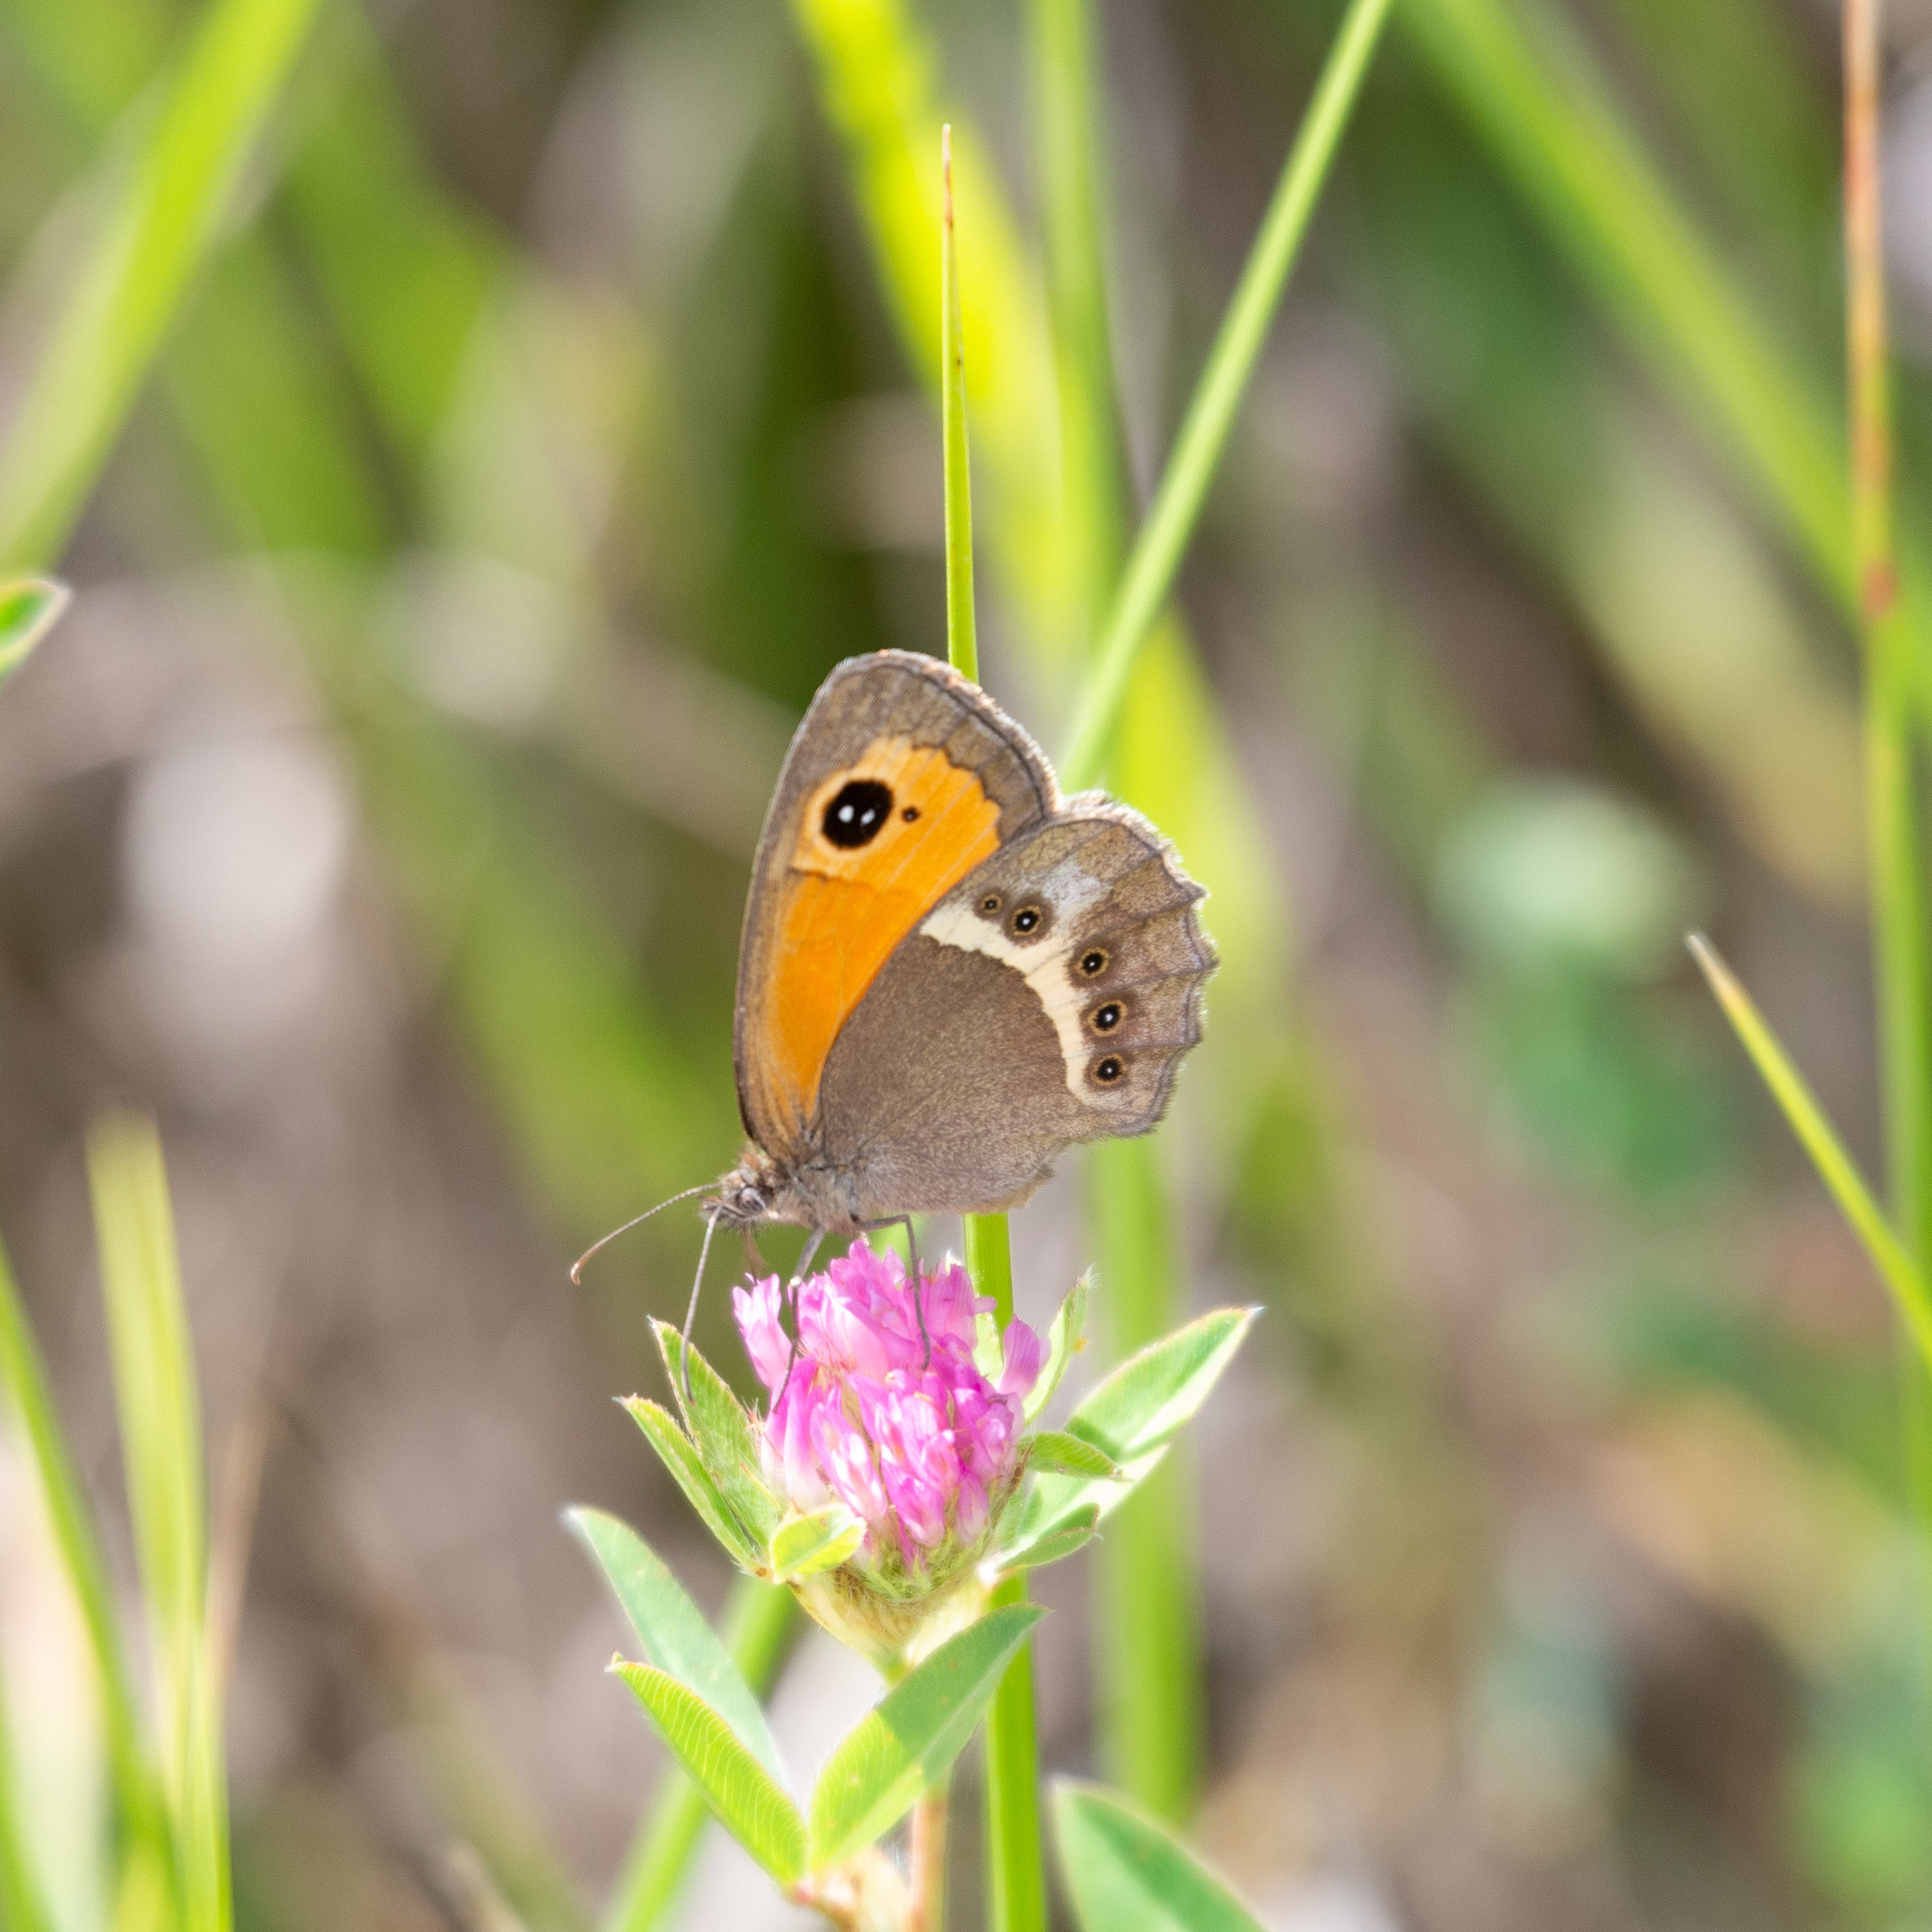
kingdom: Animalia
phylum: Arthropoda
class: Insecta
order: Lepidoptera
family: Nymphalidae
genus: Pyronia
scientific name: Pyronia bathseba
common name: Spanish gatekeeper
